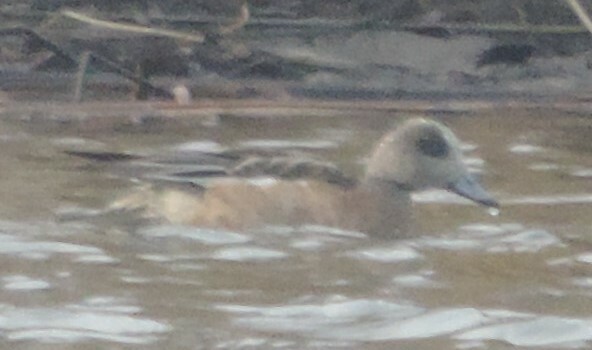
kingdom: Animalia
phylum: Chordata
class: Aves
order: Anseriformes
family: Anatidae
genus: Mareca
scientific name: Mareca americana
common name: American wigeon
